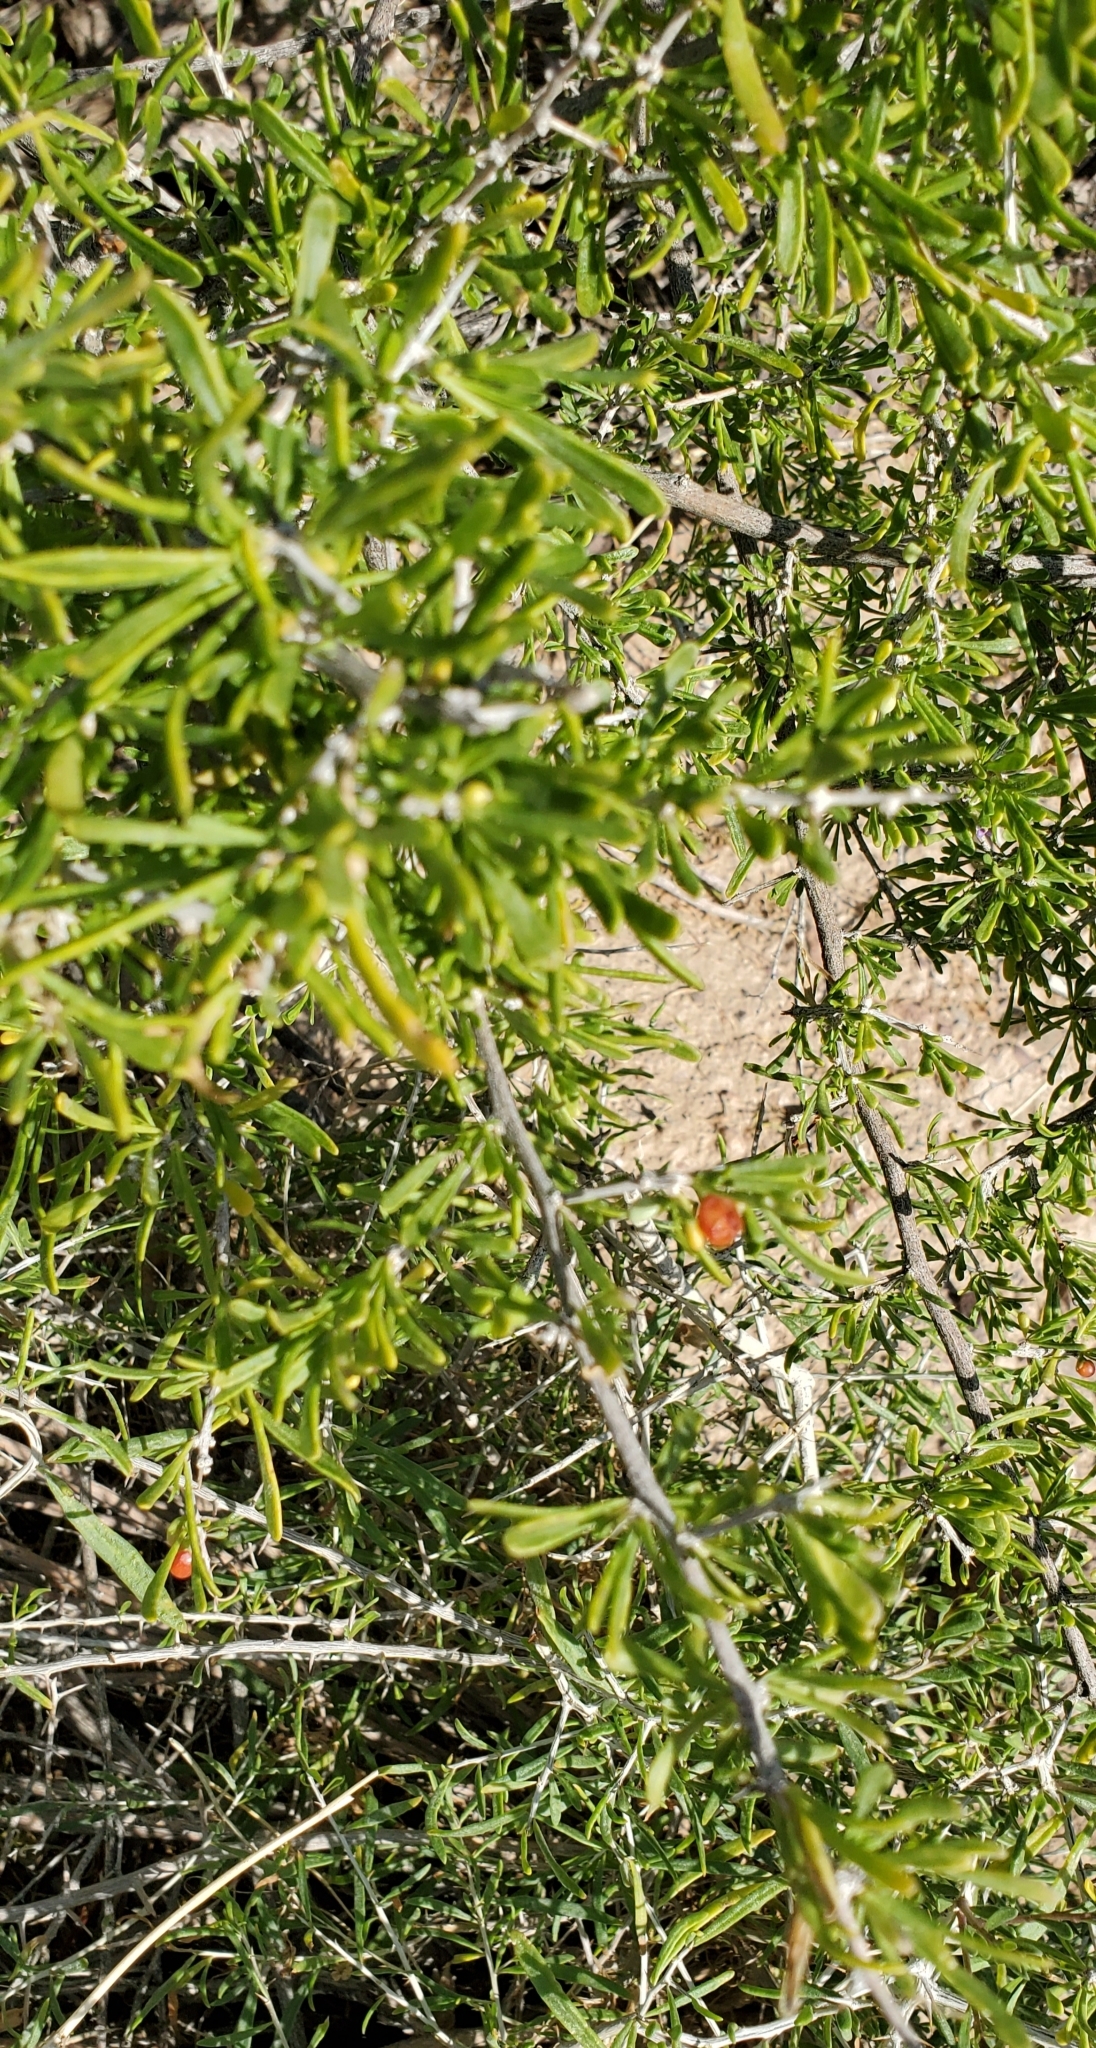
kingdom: Plantae
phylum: Tracheophyta
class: Magnoliopsida
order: Solanales
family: Solanaceae
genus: Lycium
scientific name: Lycium andersonii
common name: Water-jacket
